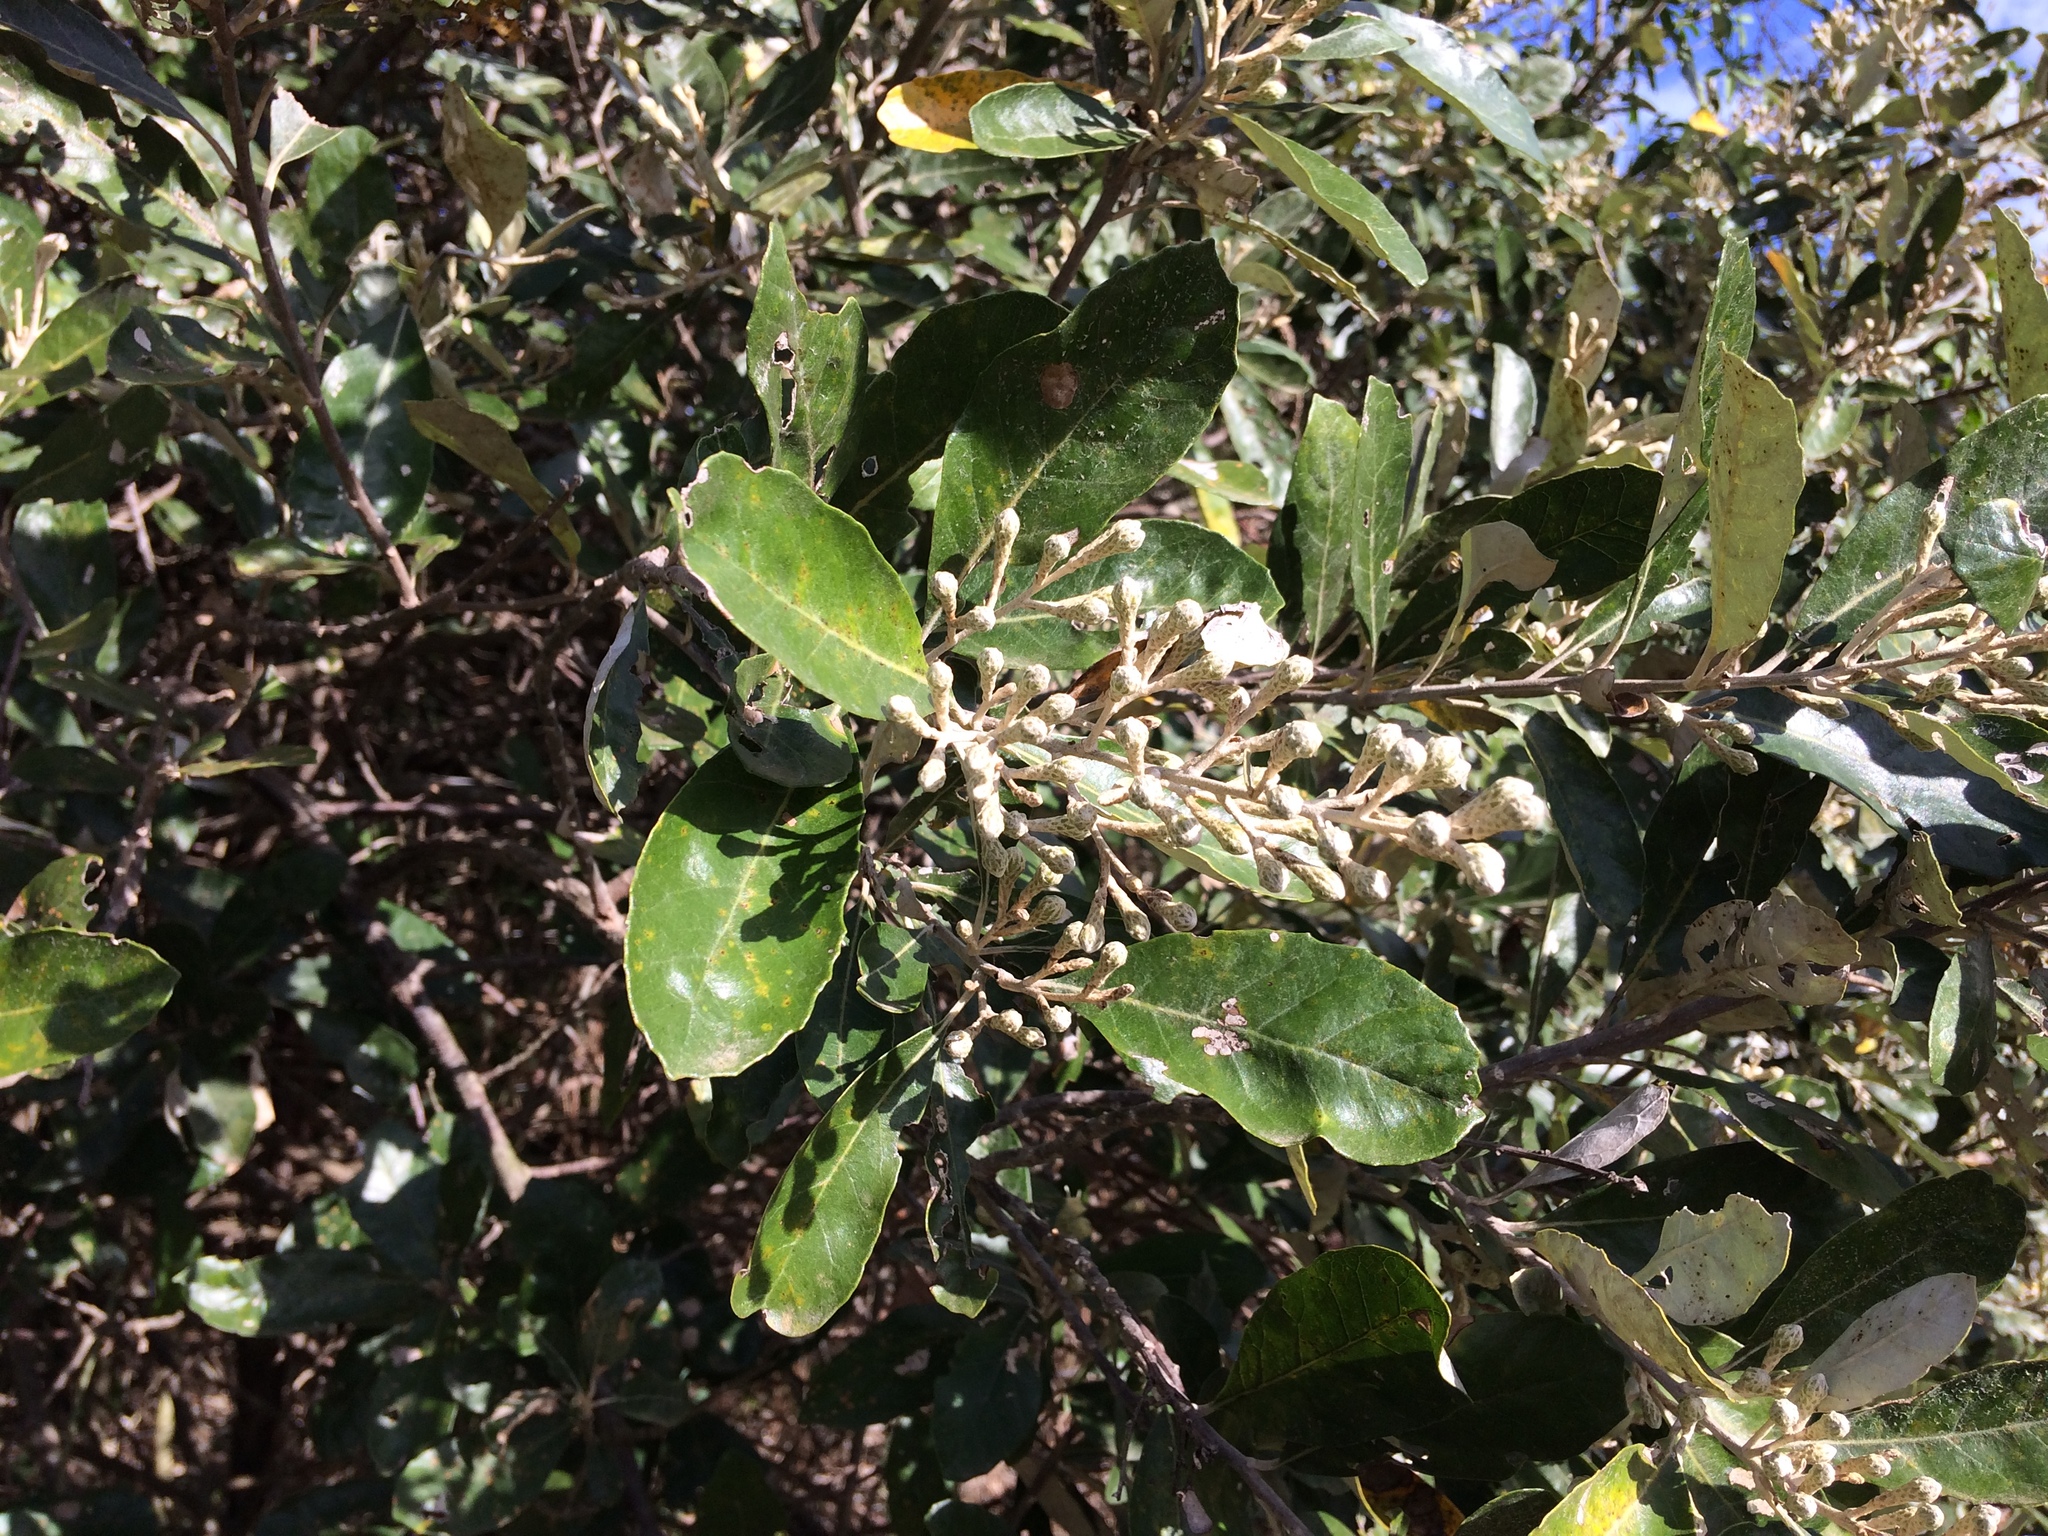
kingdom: Plantae
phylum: Tracheophyta
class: Magnoliopsida
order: Asterales
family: Asteraceae
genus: Brachylaena
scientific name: Brachylaena discolor
